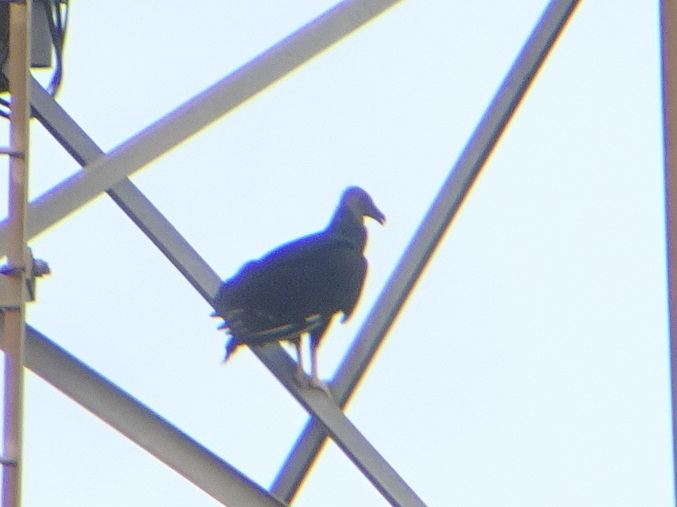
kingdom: Animalia
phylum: Chordata
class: Aves
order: Accipitriformes
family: Cathartidae
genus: Coragyps
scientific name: Coragyps atratus
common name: Black vulture
